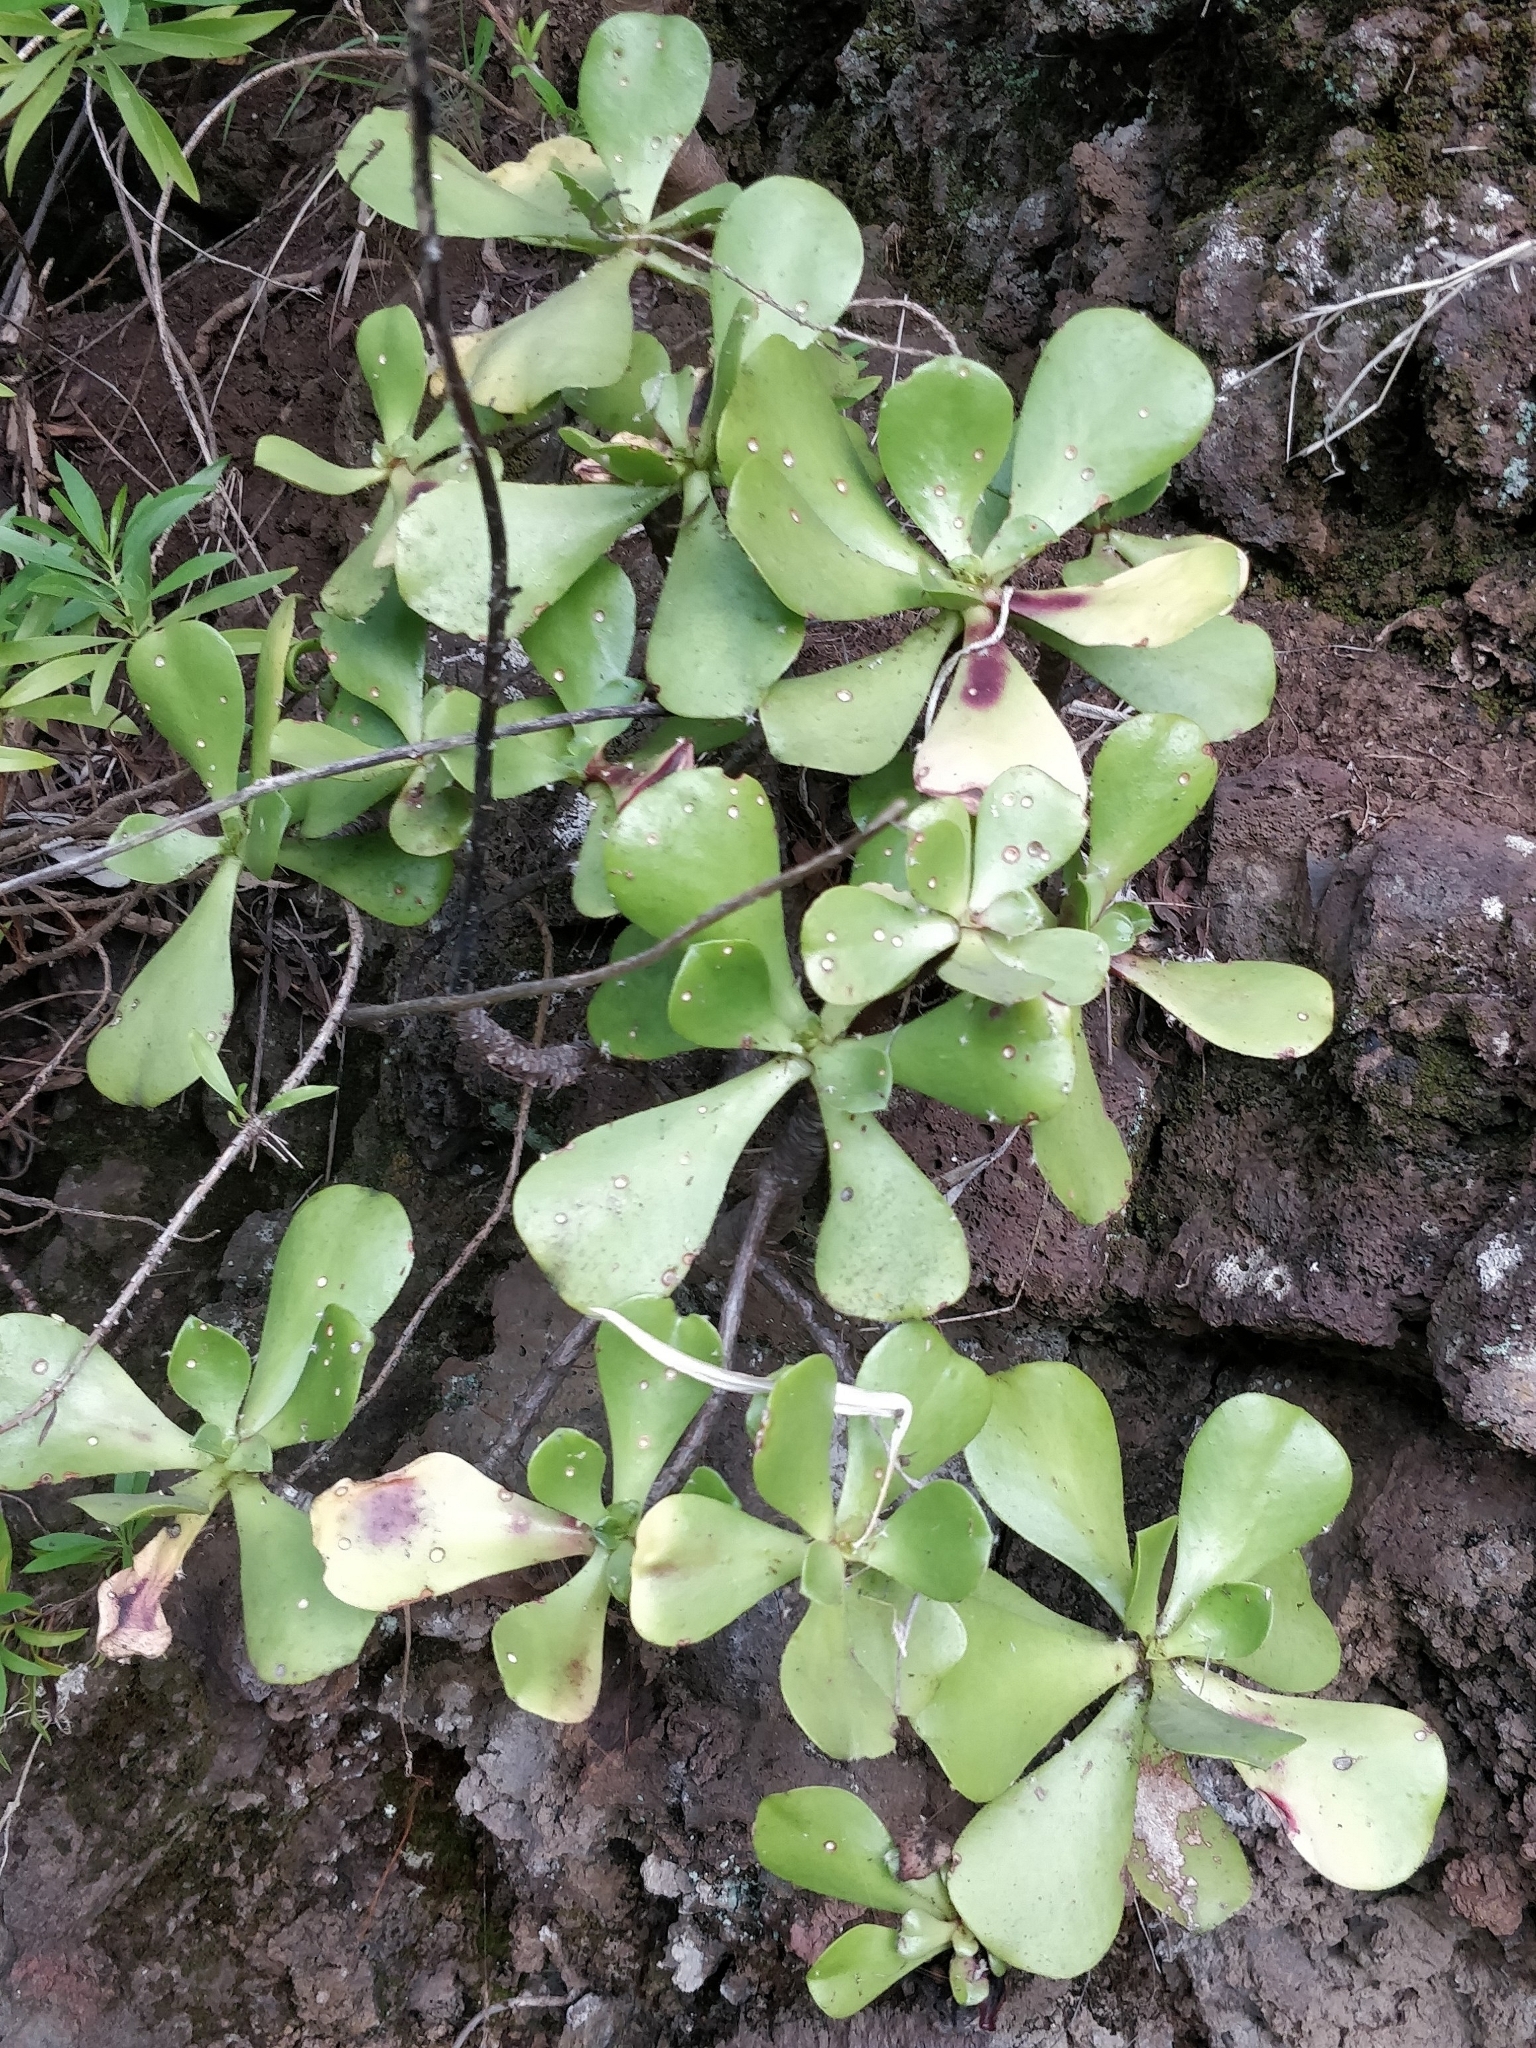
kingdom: Plantae
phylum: Tracheophyta
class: Magnoliopsida
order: Saxifragales
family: Crassulaceae
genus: Aeonium
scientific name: Aeonium glutinosum
